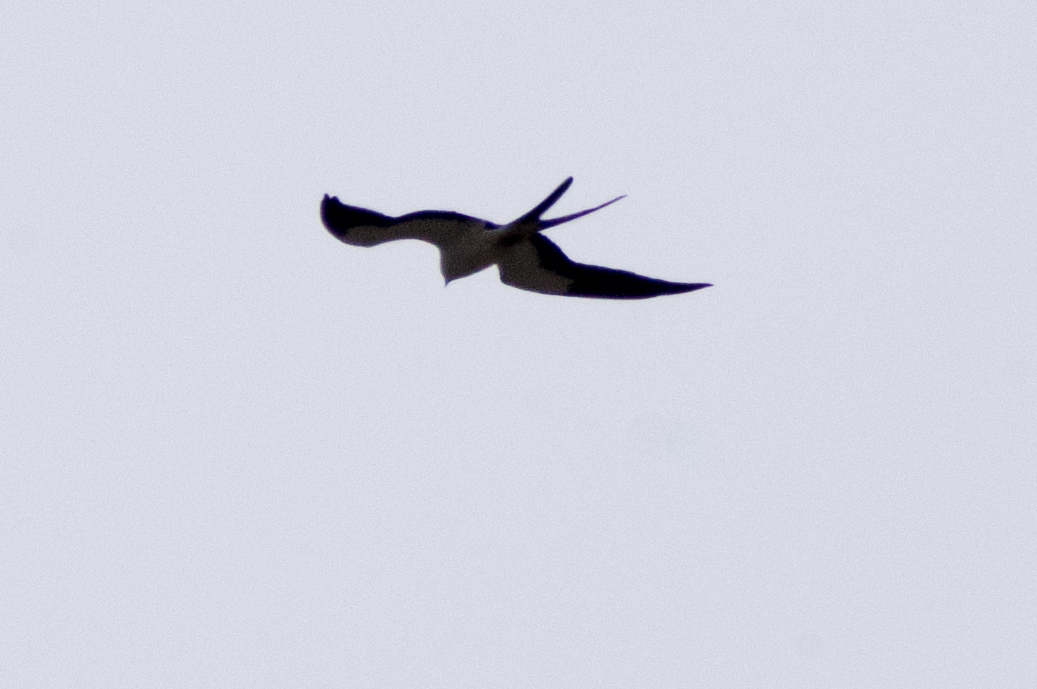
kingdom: Animalia
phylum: Chordata
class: Aves
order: Accipitriformes
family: Accipitridae
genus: Elanoides
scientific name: Elanoides forficatus
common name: Swallow-tailed kite
